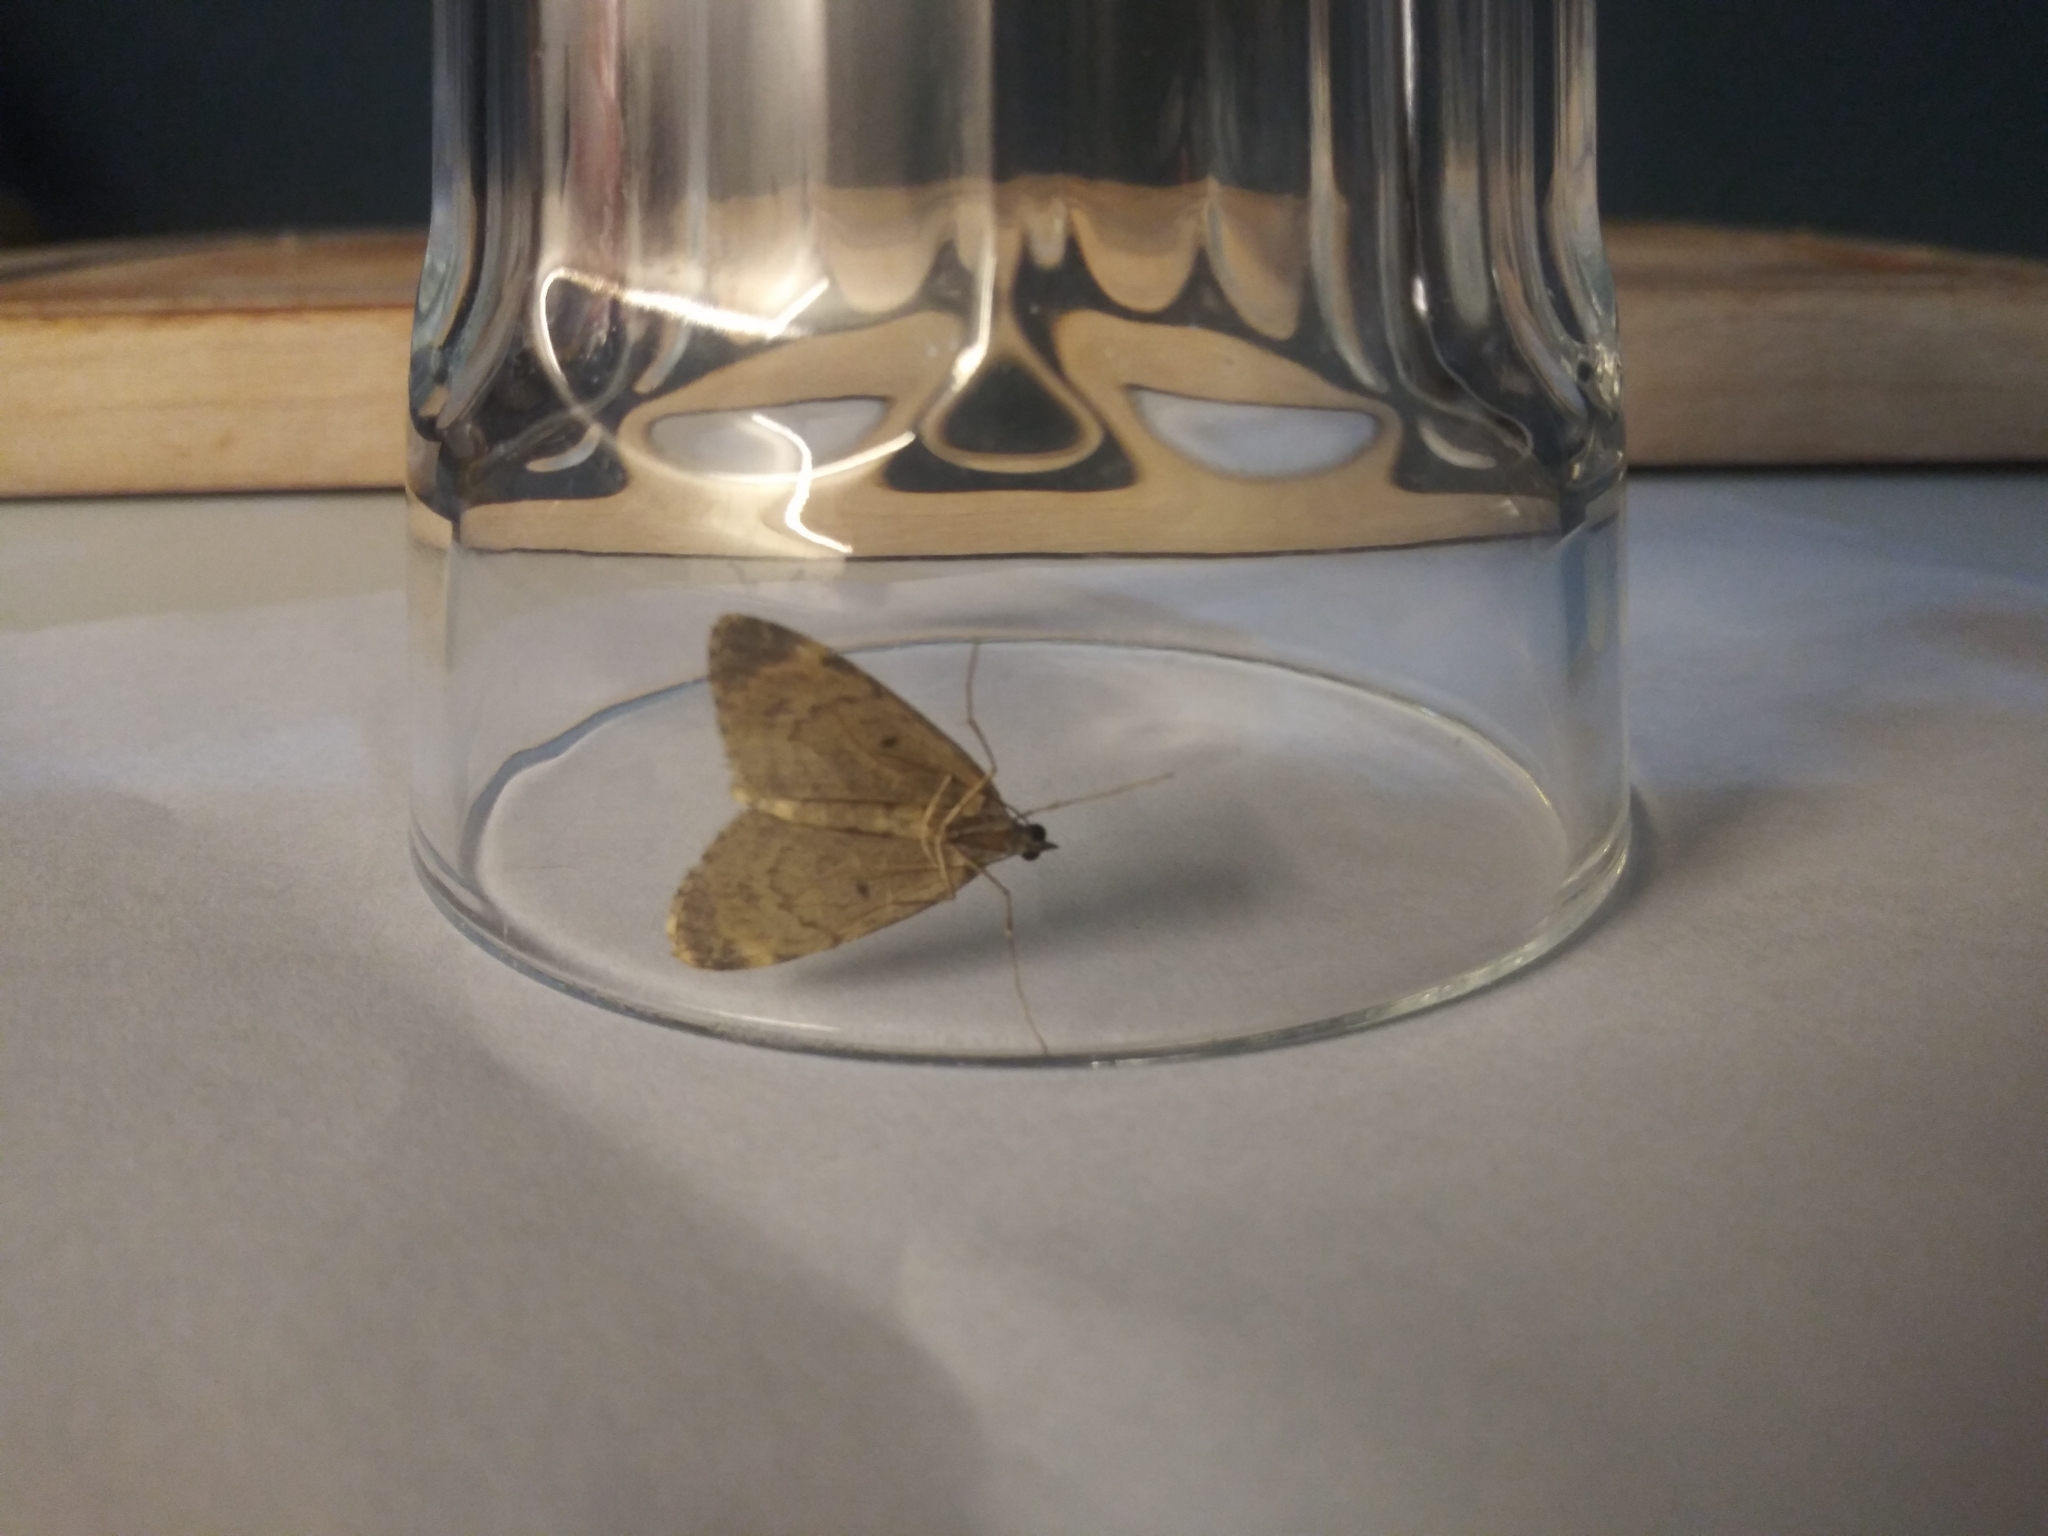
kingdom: Animalia
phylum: Arthropoda
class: Insecta
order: Lepidoptera
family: Geometridae
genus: Chloroclysta
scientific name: Chloroclysta siterata
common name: Red-green carpet
